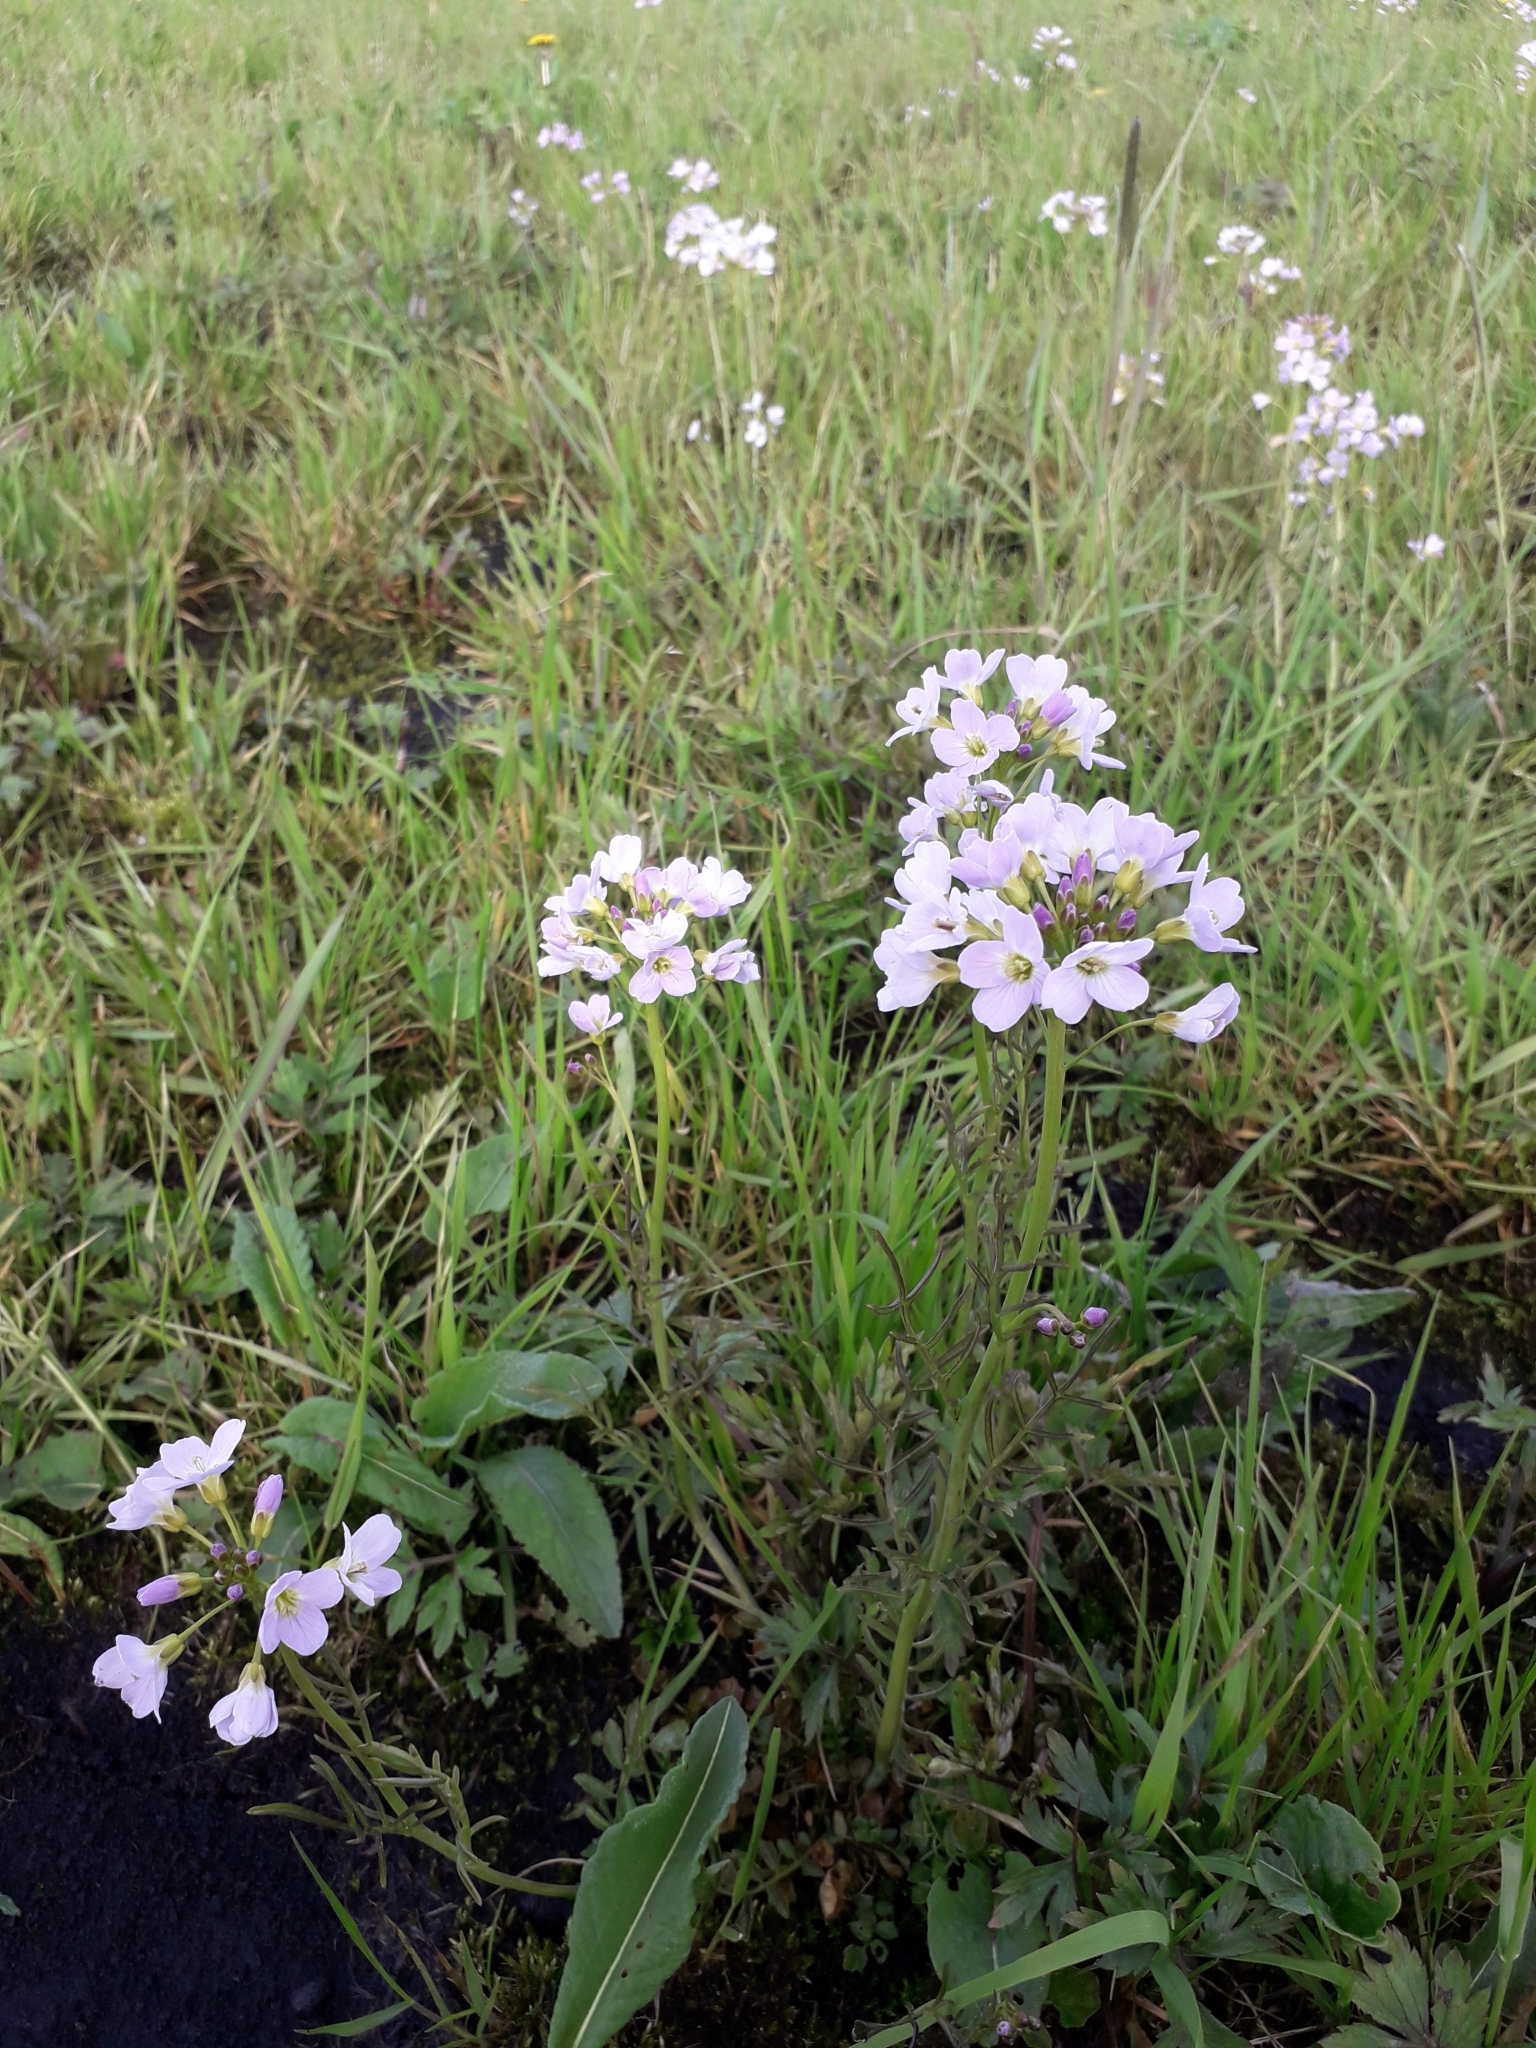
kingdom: Plantae
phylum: Tracheophyta
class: Magnoliopsida
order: Brassicales
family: Brassicaceae
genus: Cardamine
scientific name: Cardamine pratensis
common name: Cuckoo flower
